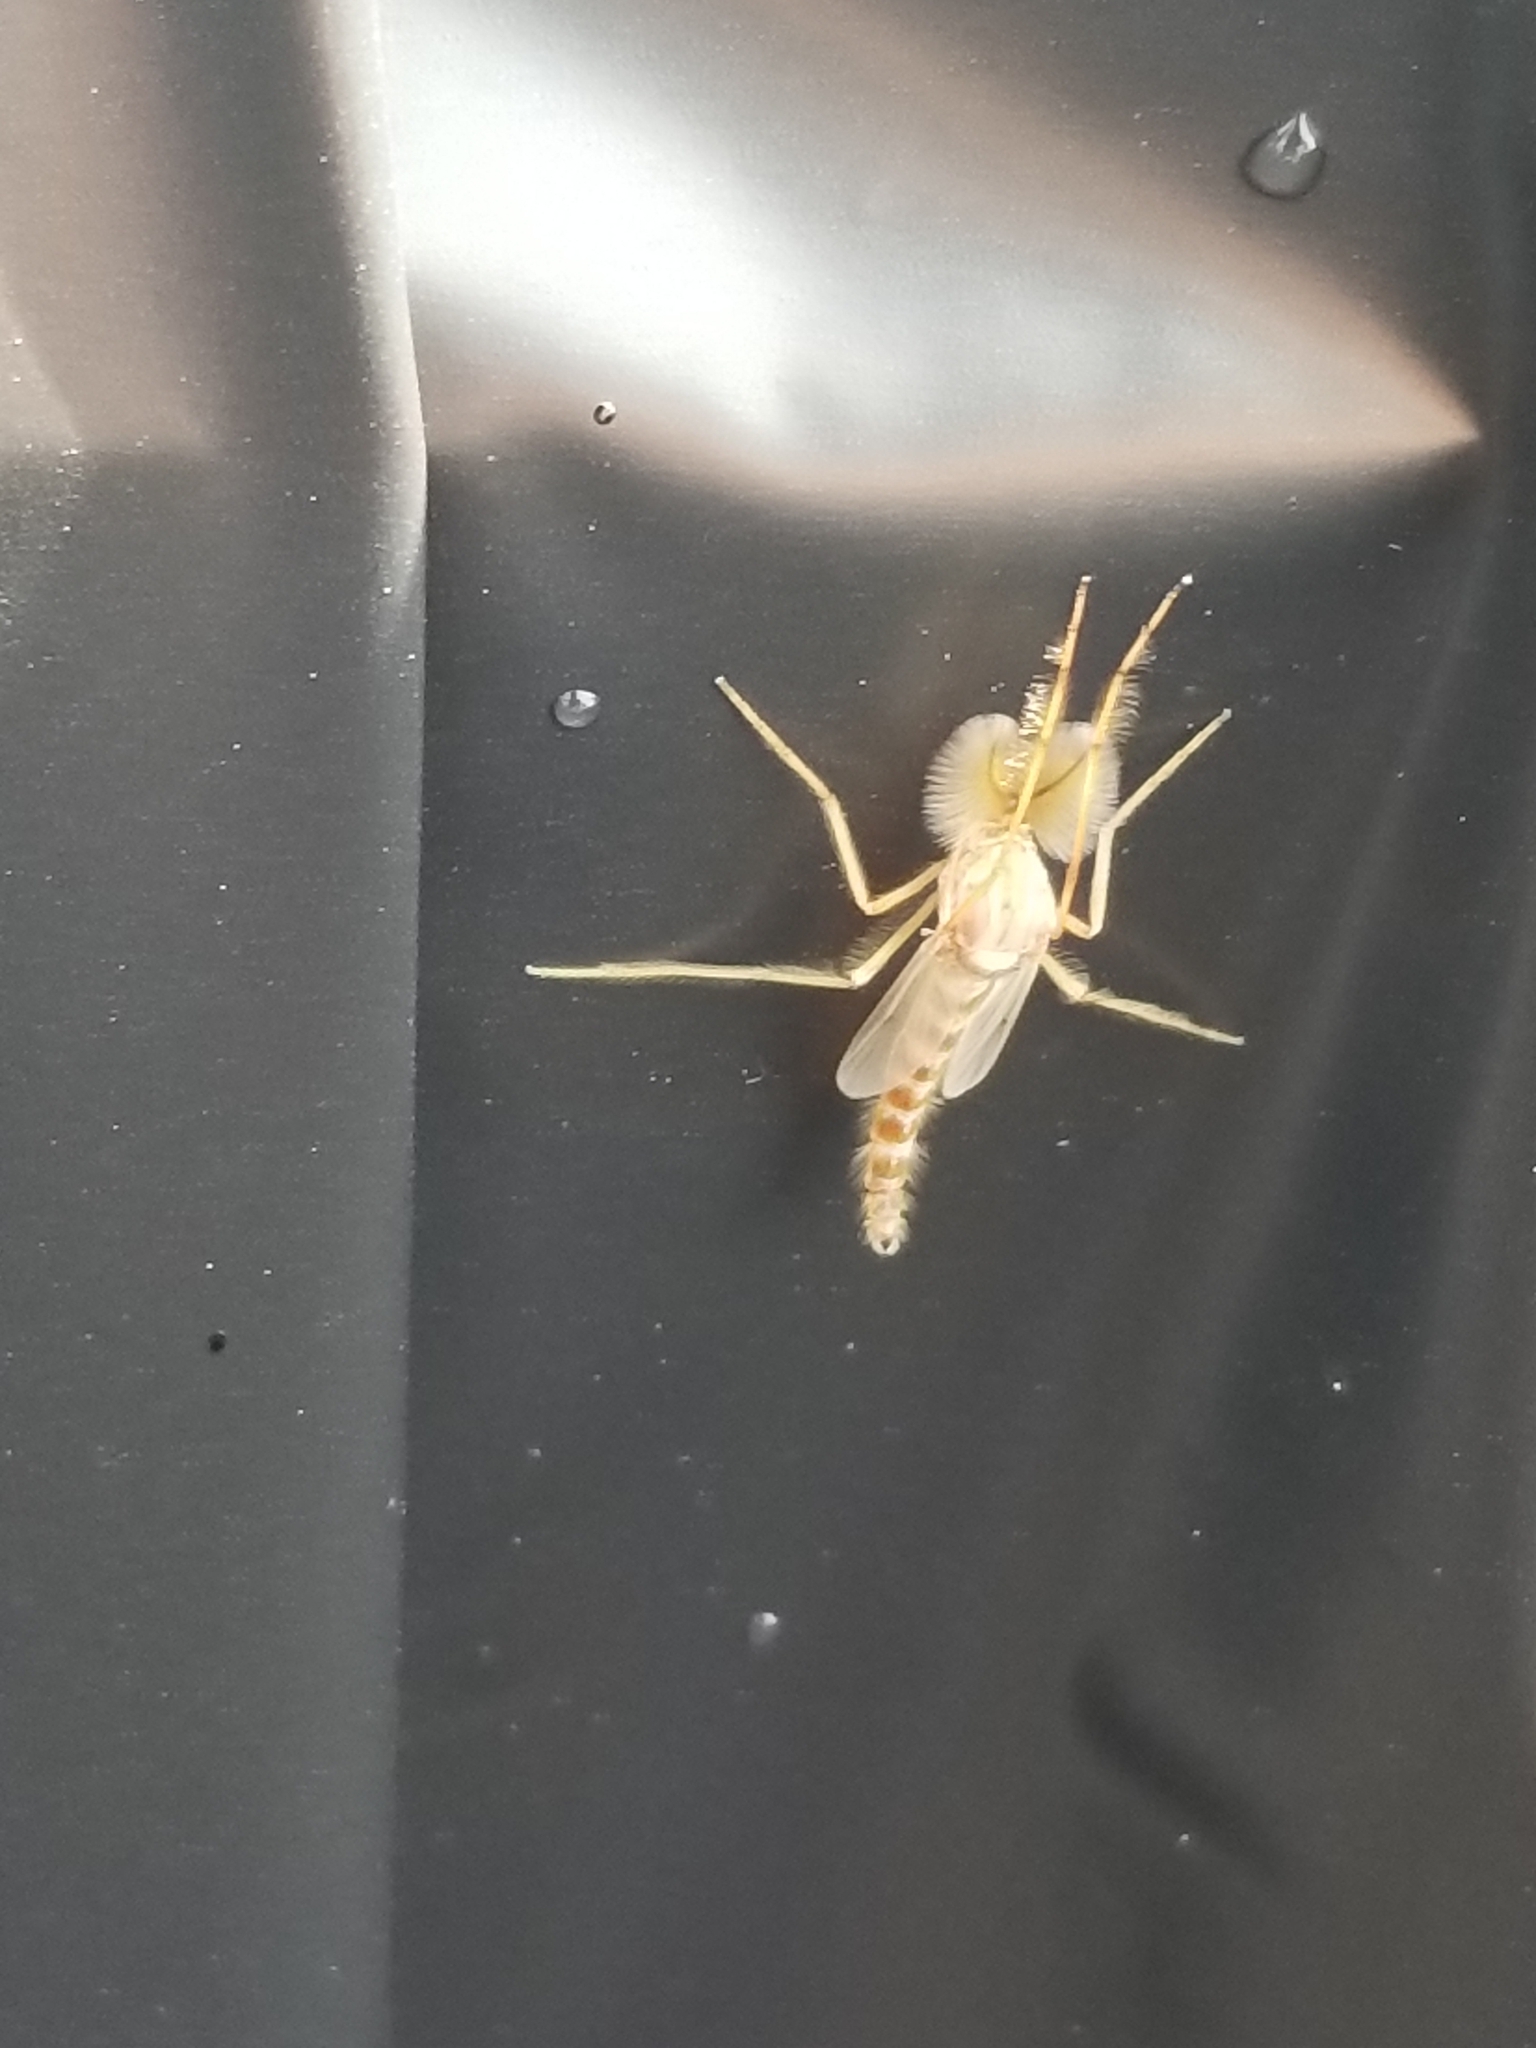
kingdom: Animalia
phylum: Arthropoda
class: Insecta
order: Diptera
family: Chironomidae
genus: Chironomus
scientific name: Chironomus
